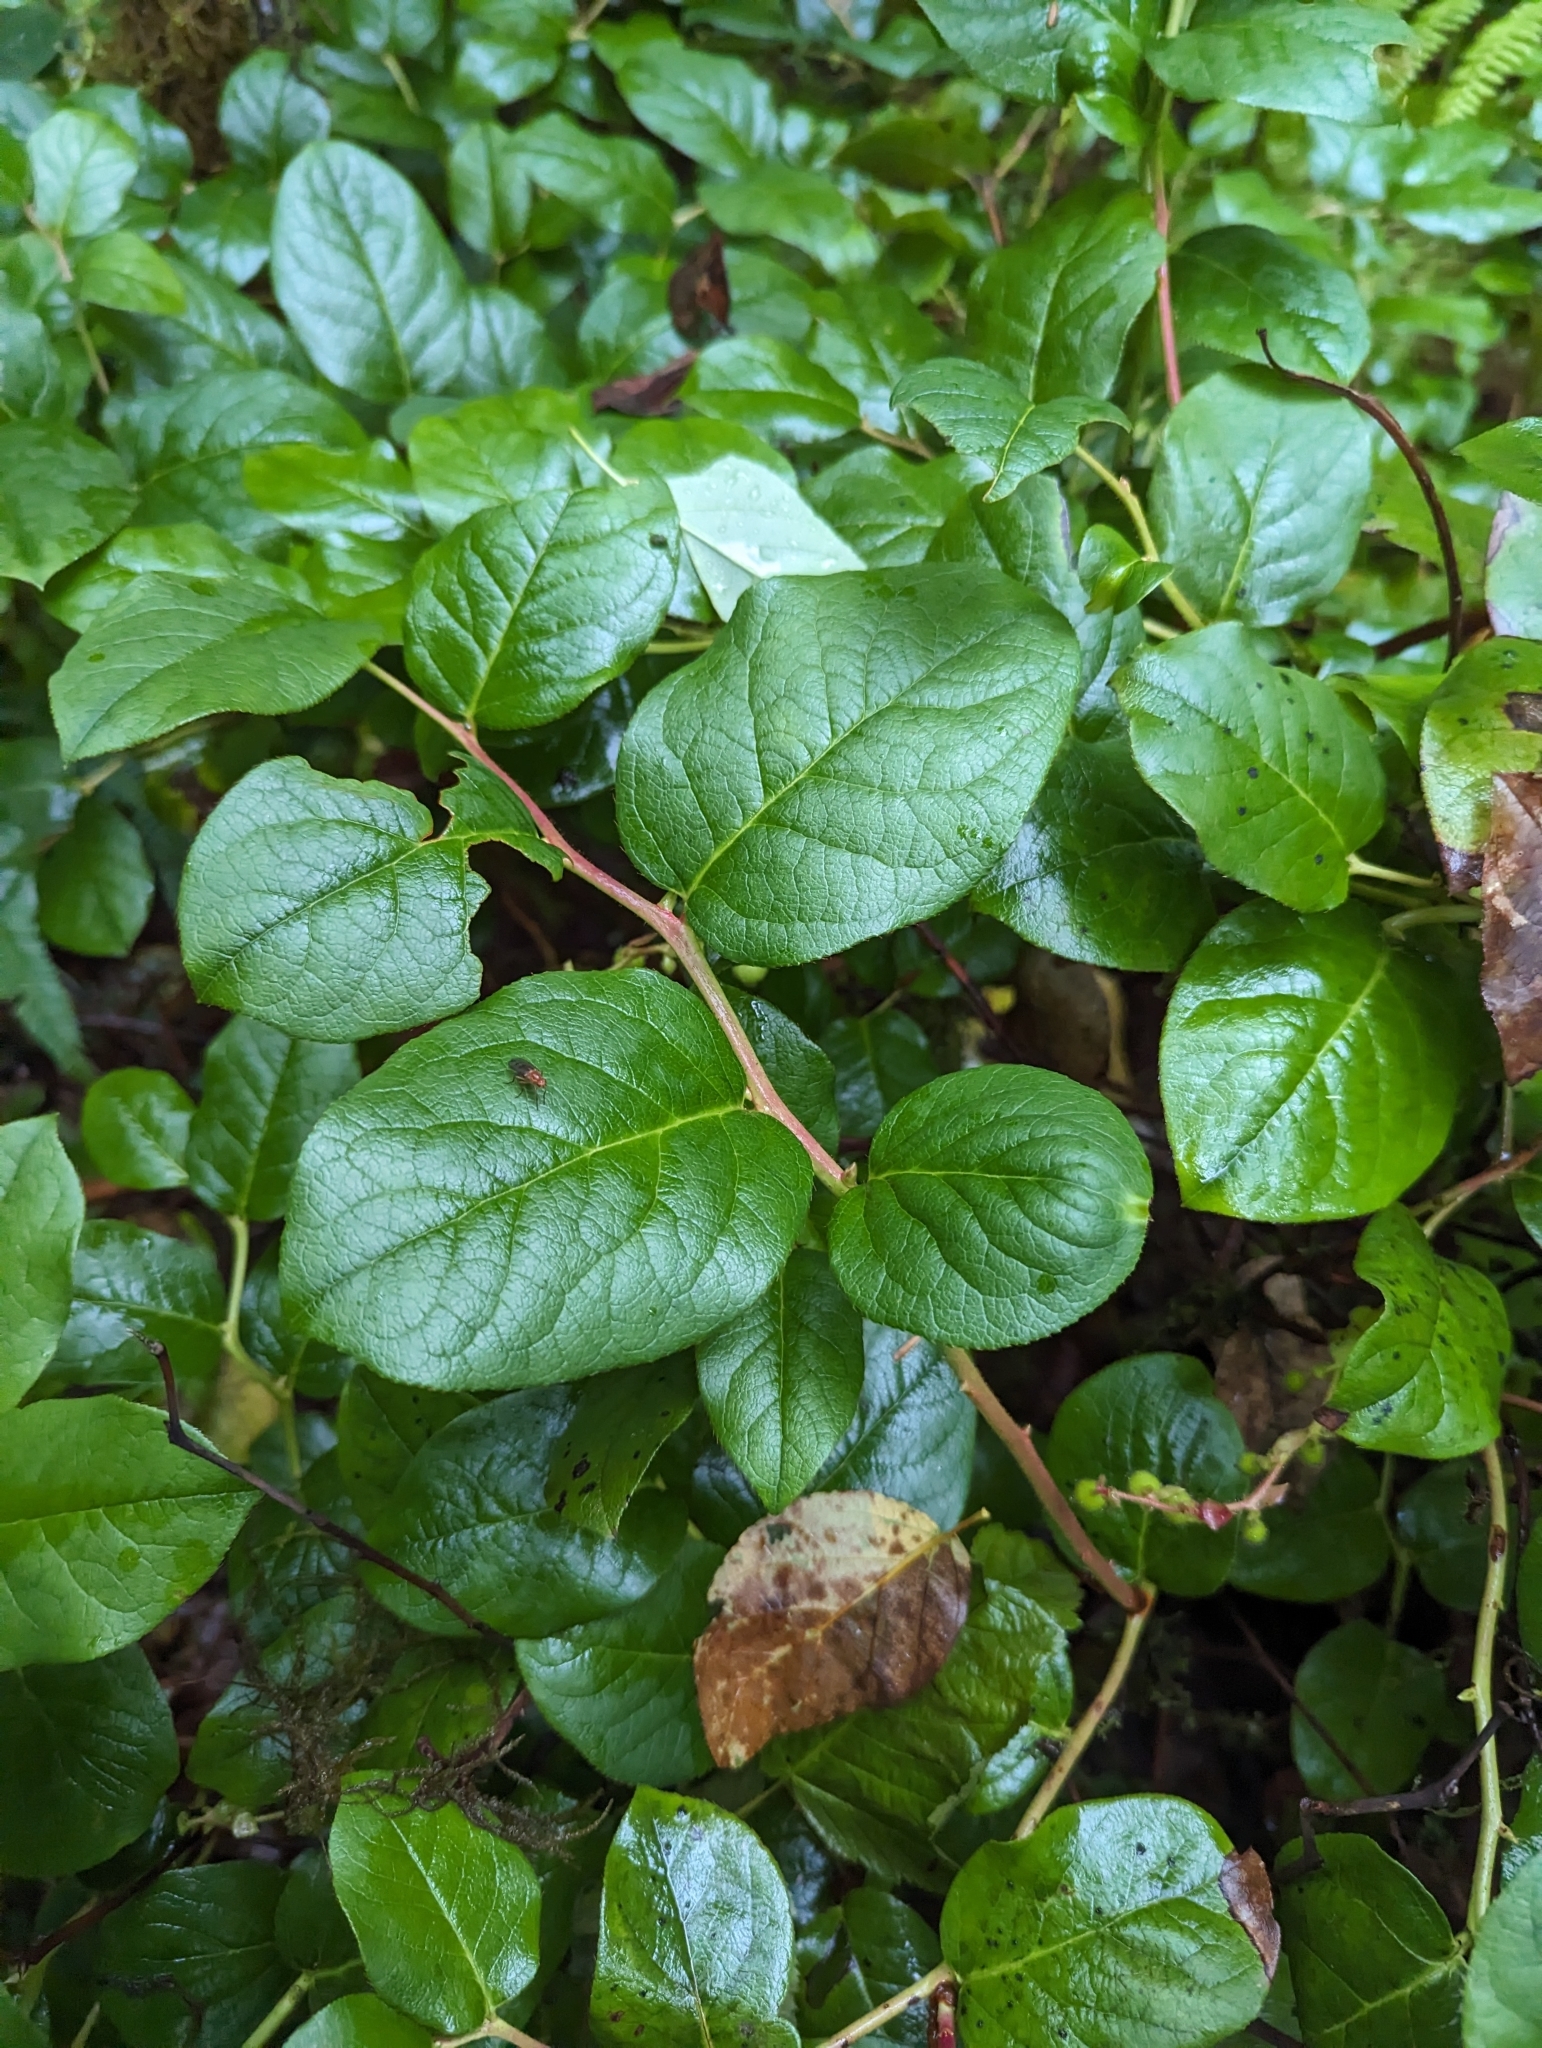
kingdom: Plantae
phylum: Tracheophyta
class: Magnoliopsida
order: Ericales
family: Ericaceae
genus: Gaultheria
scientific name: Gaultheria shallon
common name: Shallon
